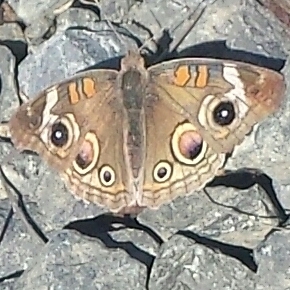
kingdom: Animalia
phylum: Arthropoda
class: Insecta
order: Lepidoptera
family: Nymphalidae
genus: Junonia
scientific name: Junonia grisea
